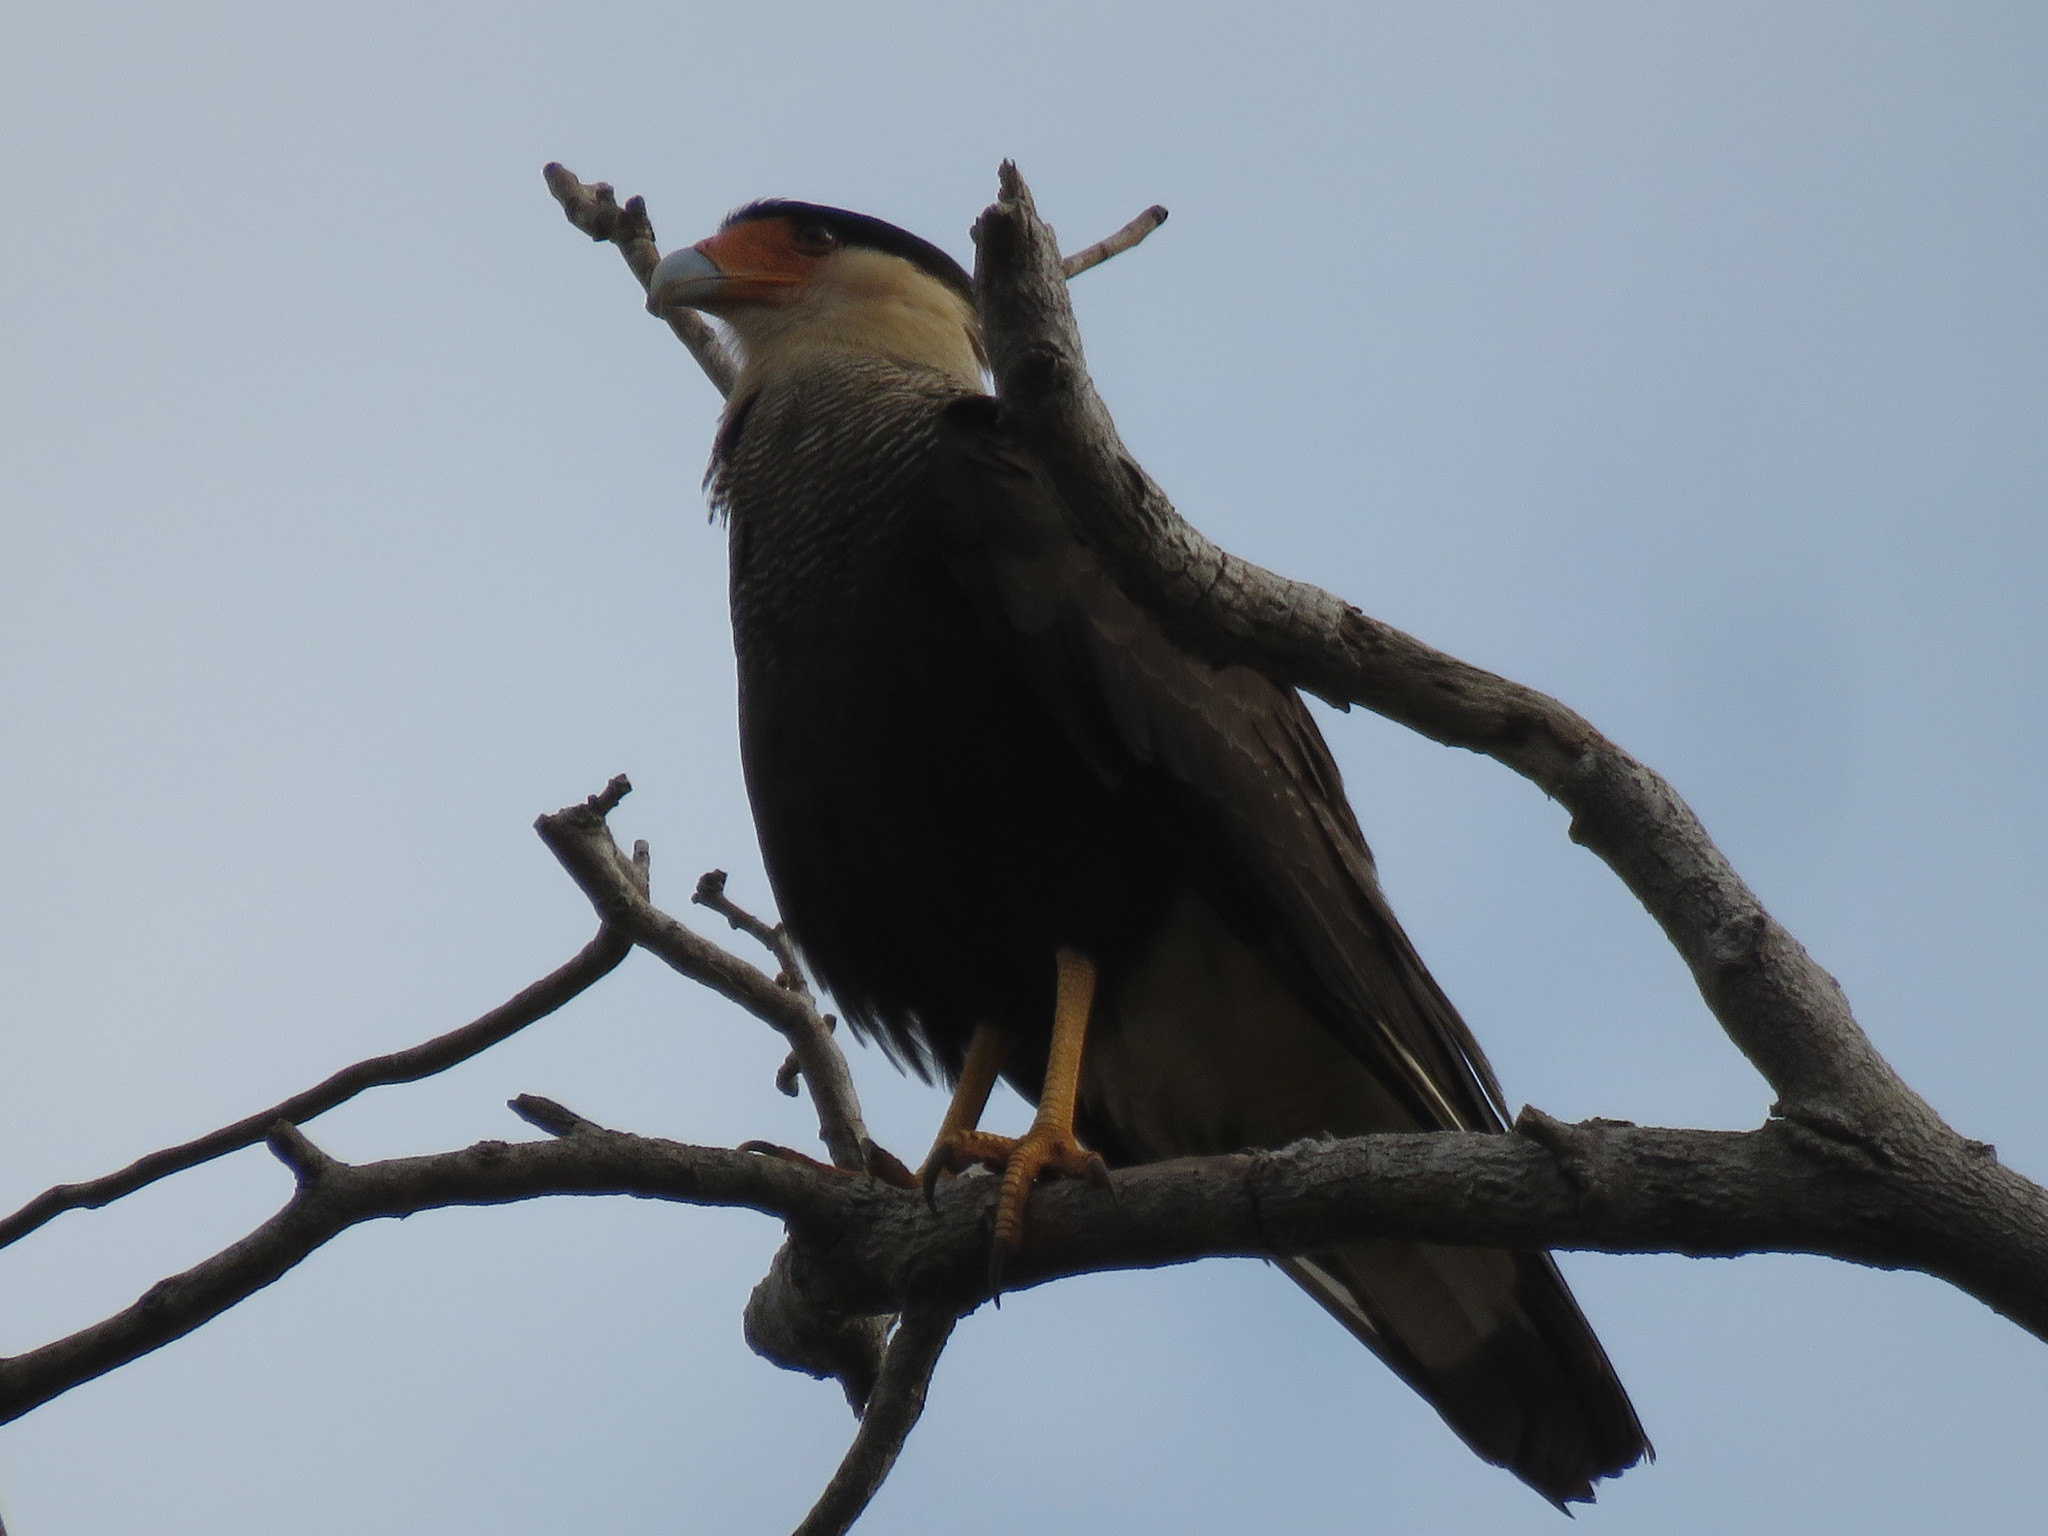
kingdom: Animalia
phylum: Chordata
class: Aves
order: Falconiformes
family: Falconidae
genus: Caracara
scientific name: Caracara plancus
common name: Southern caracara
